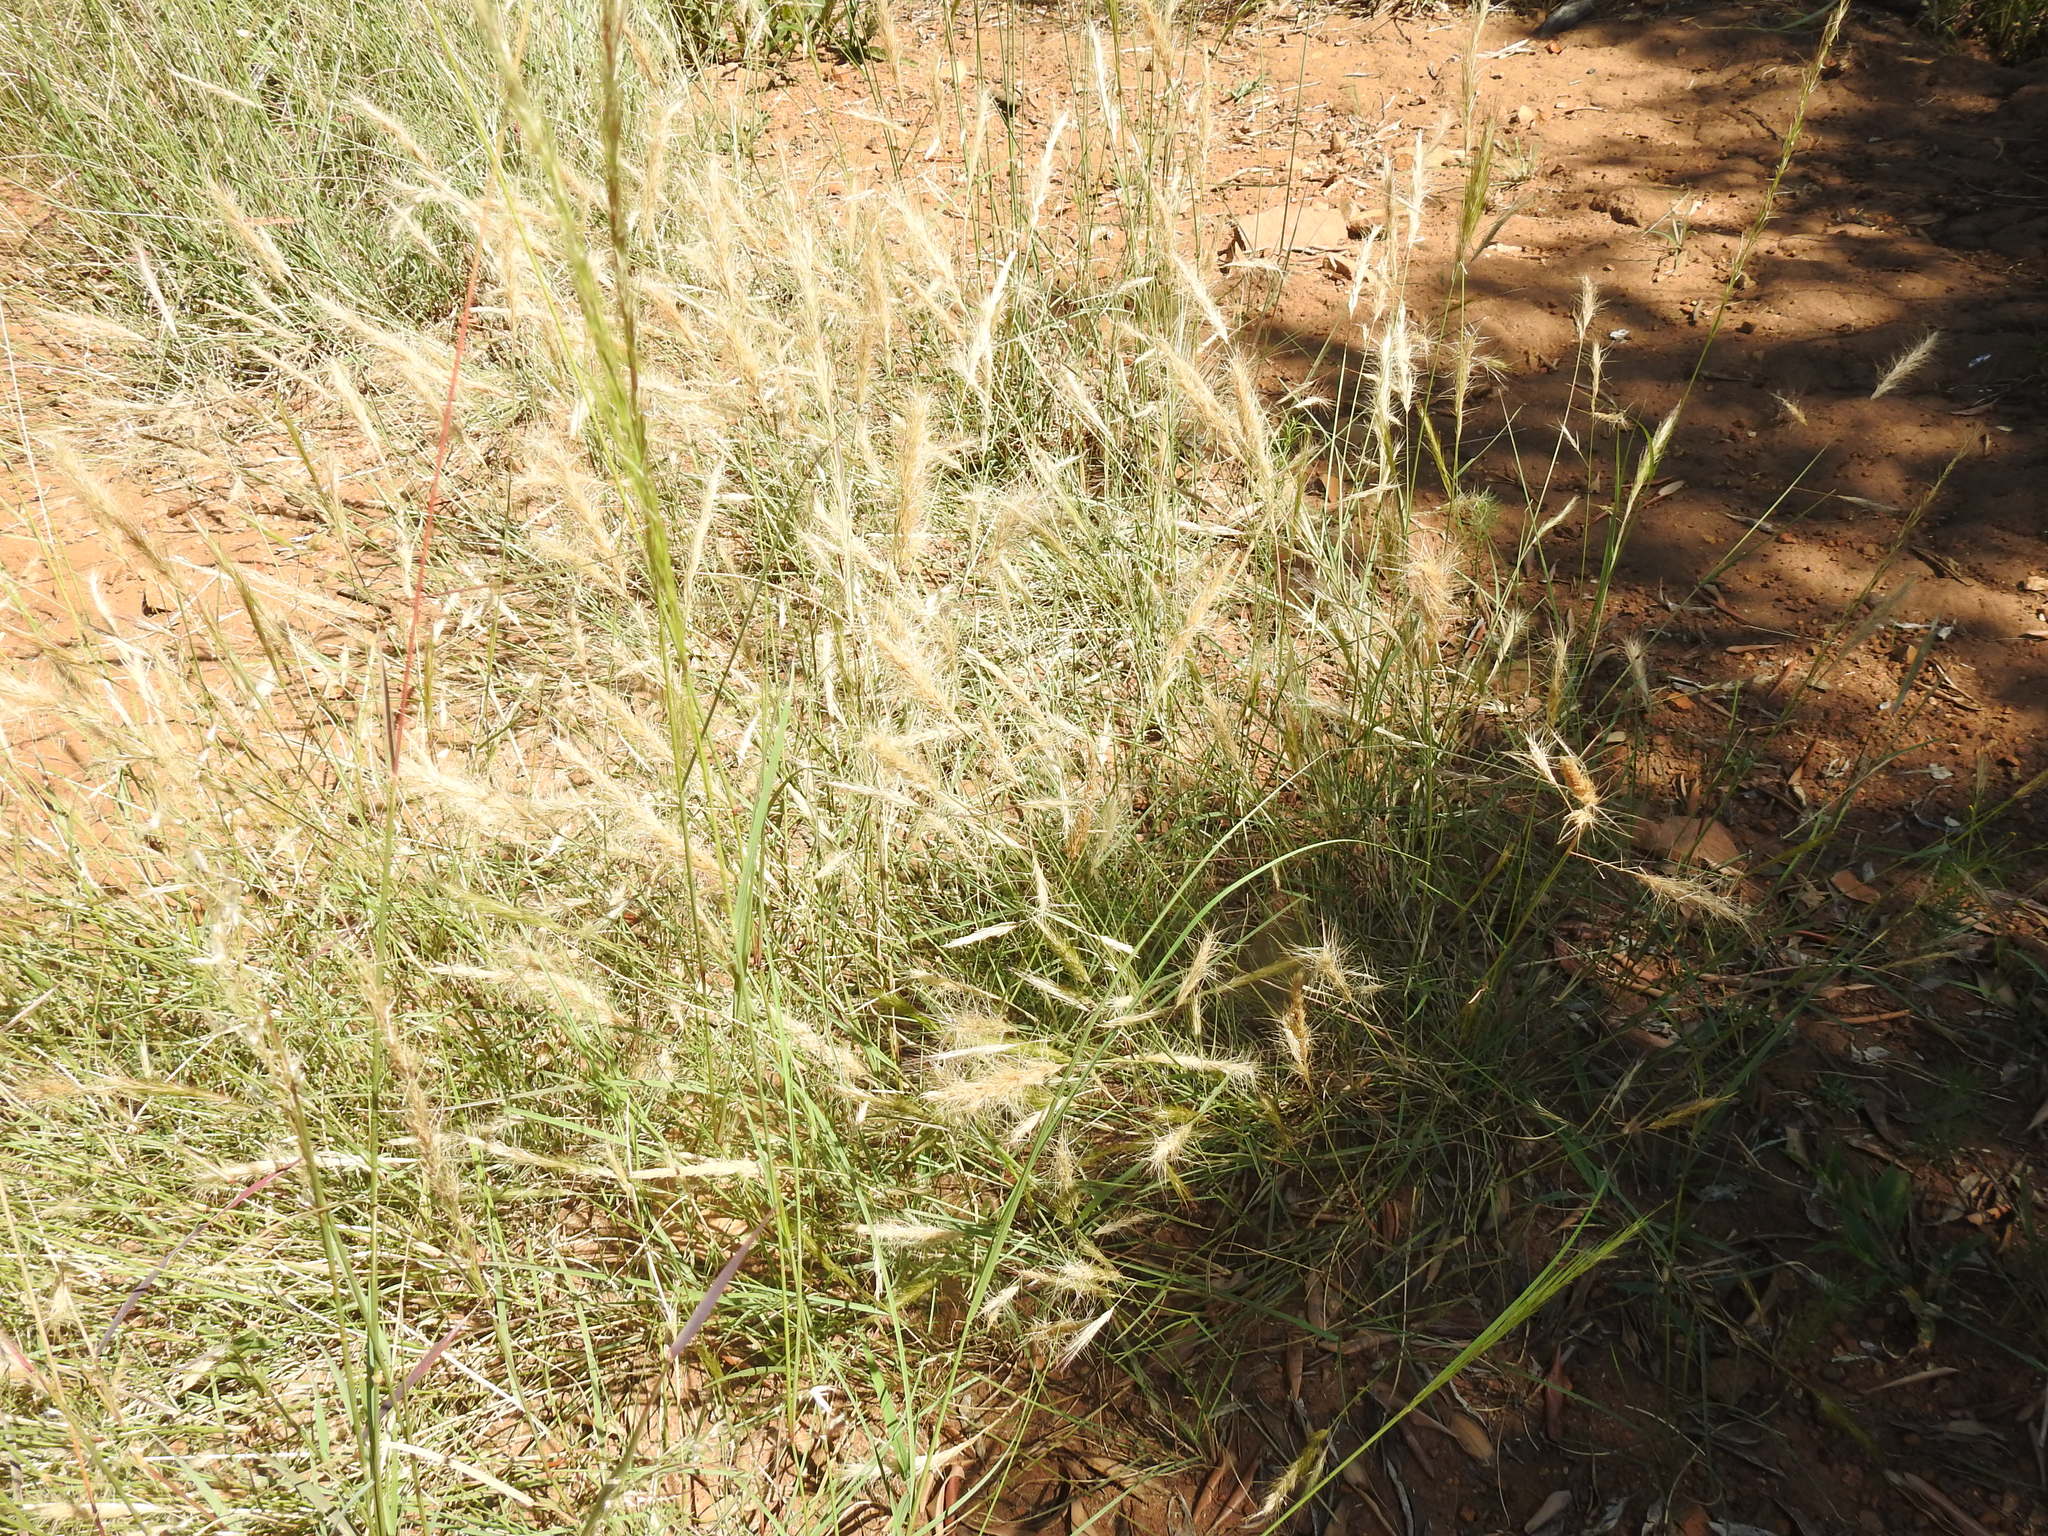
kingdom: Plantae
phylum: Tracheophyta
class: Liliopsida
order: Poales
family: Poaceae
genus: Aristida
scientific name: Aristida congesta
